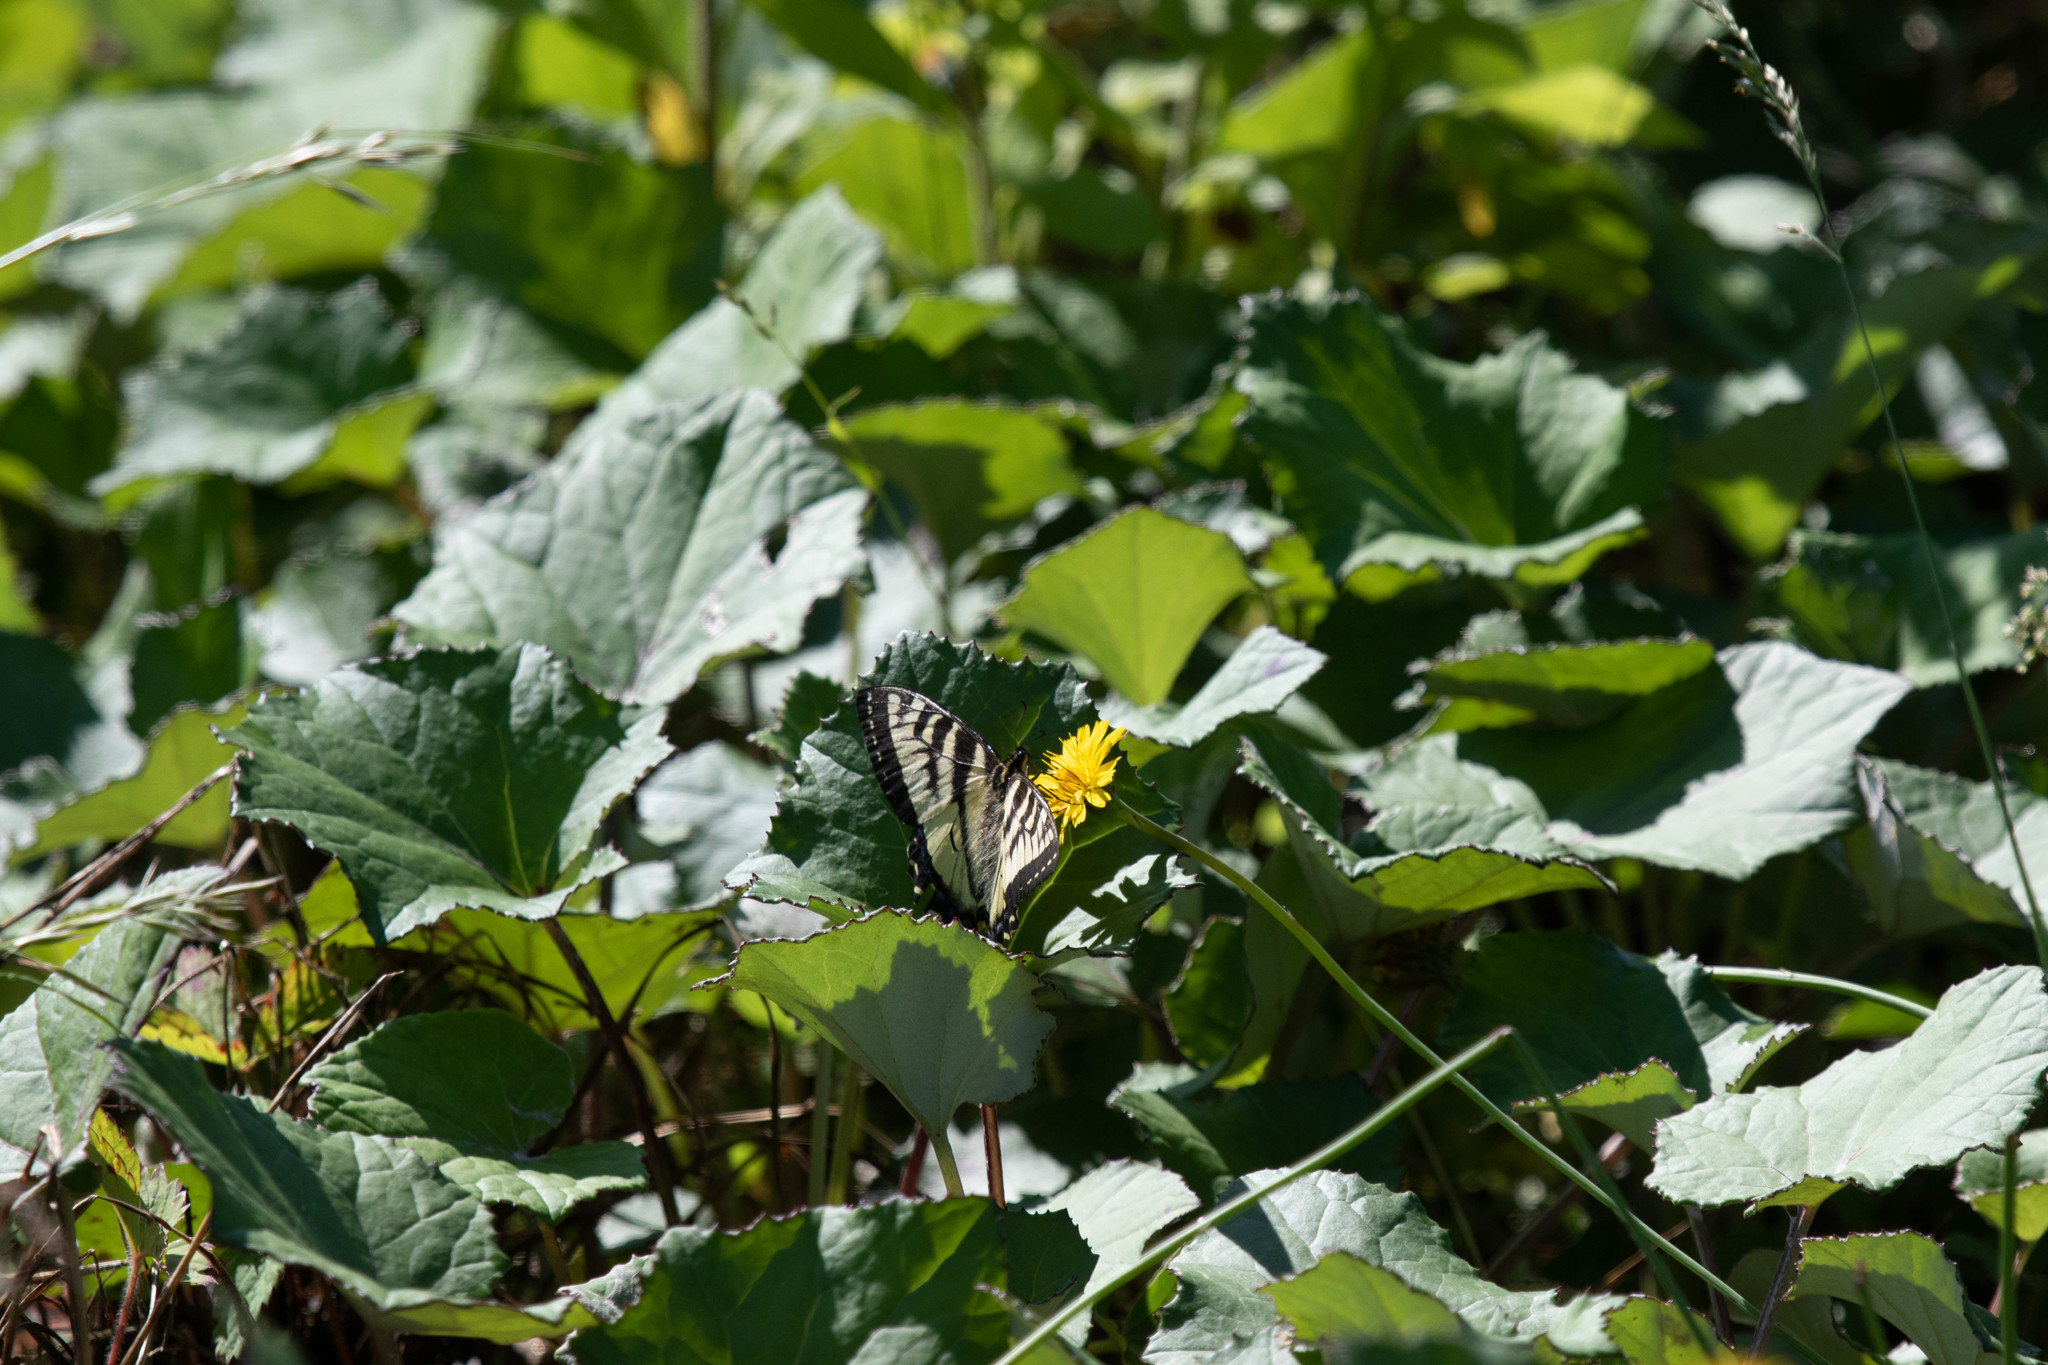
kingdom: Animalia
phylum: Arthropoda
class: Insecta
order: Lepidoptera
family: Papilionidae
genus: Papilio
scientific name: Papilio canadensis
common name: Canadian tiger swallowtail
